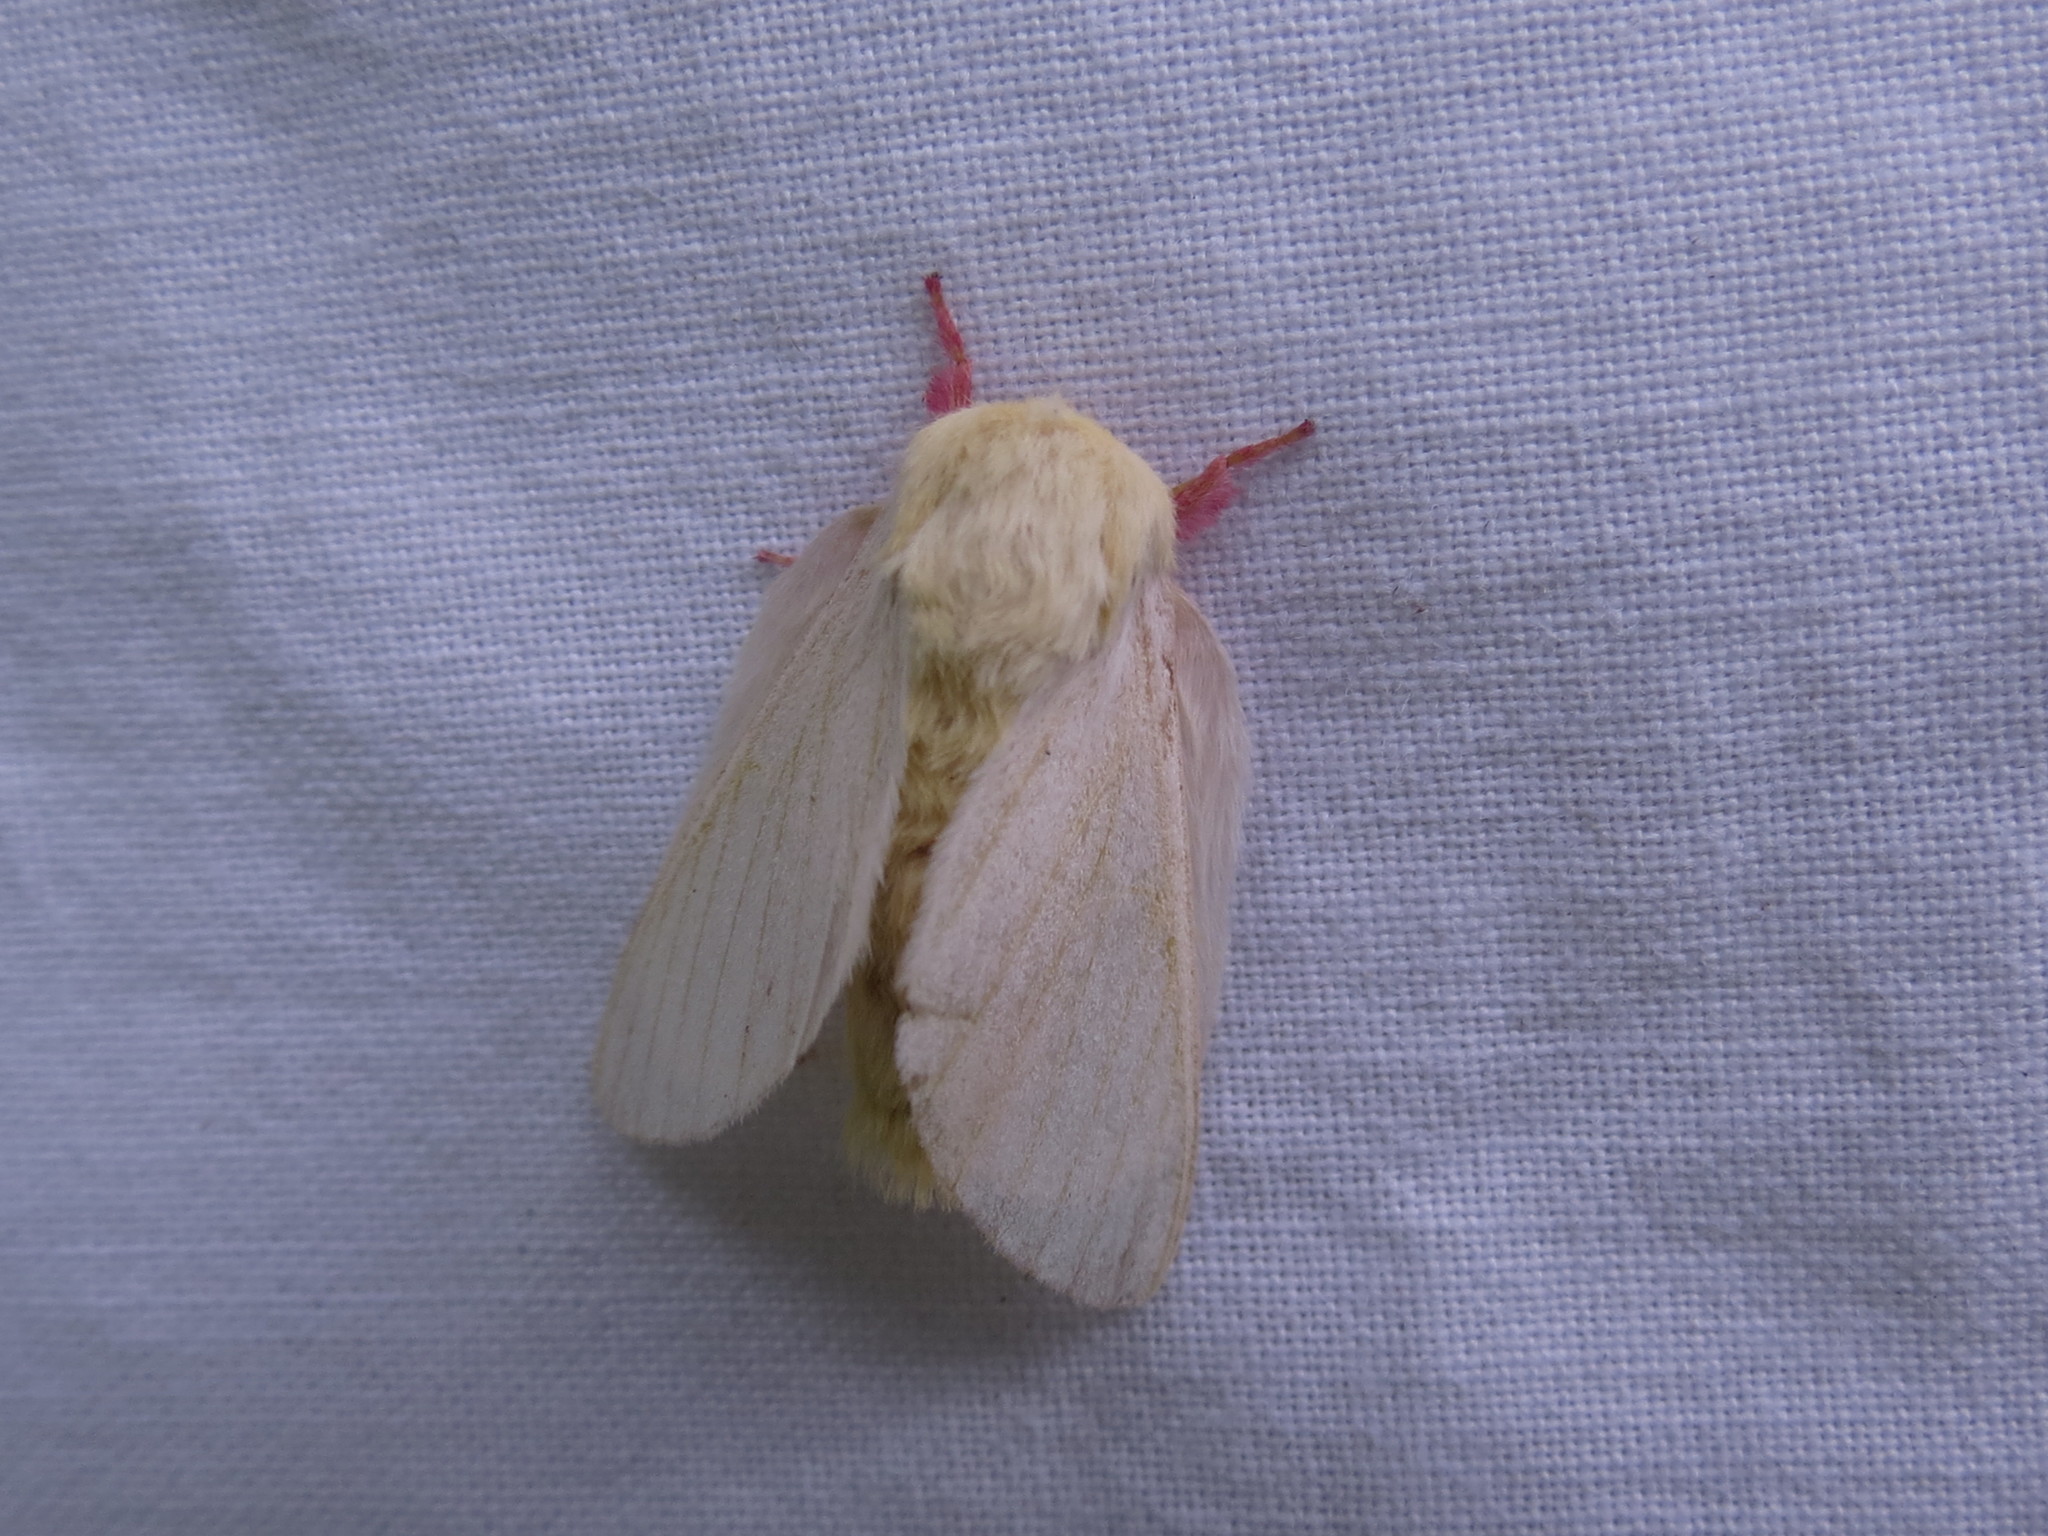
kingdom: Animalia
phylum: Arthropoda
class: Insecta
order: Lepidoptera
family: Saturniidae
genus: Dryocampa
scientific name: Dryocampa rubicunda
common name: Rosy maple moth
